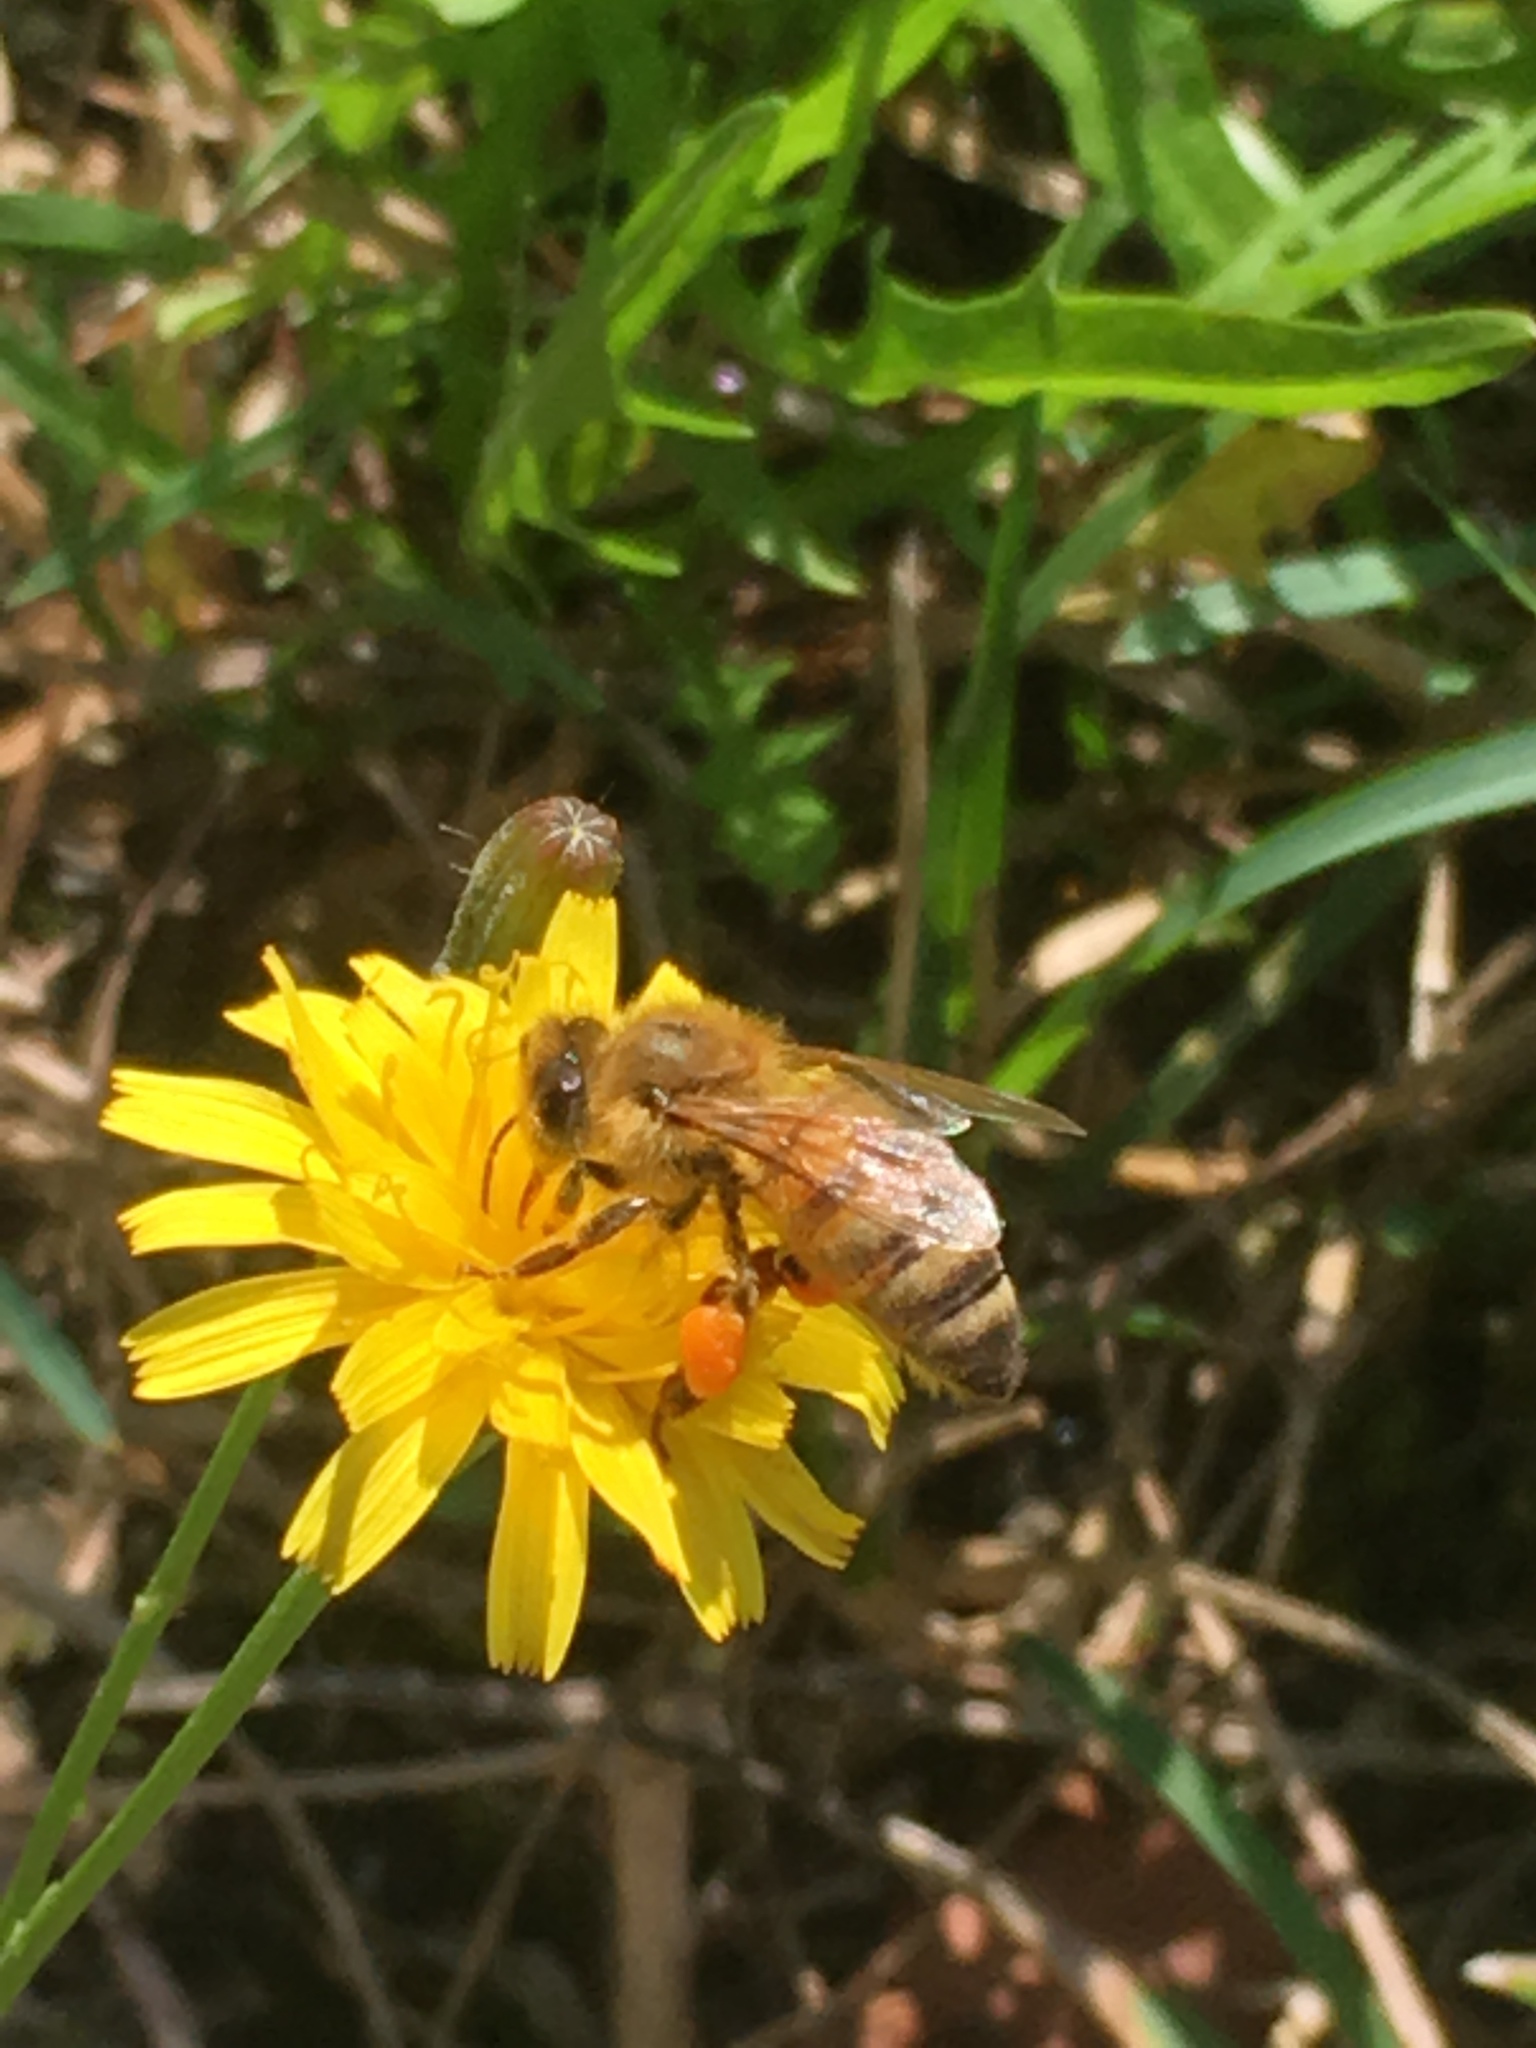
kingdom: Animalia
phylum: Arthropoda
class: Insecta
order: Hymenoptera
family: Apidae
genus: Apis
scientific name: Apis mellifera
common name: Honey bee
